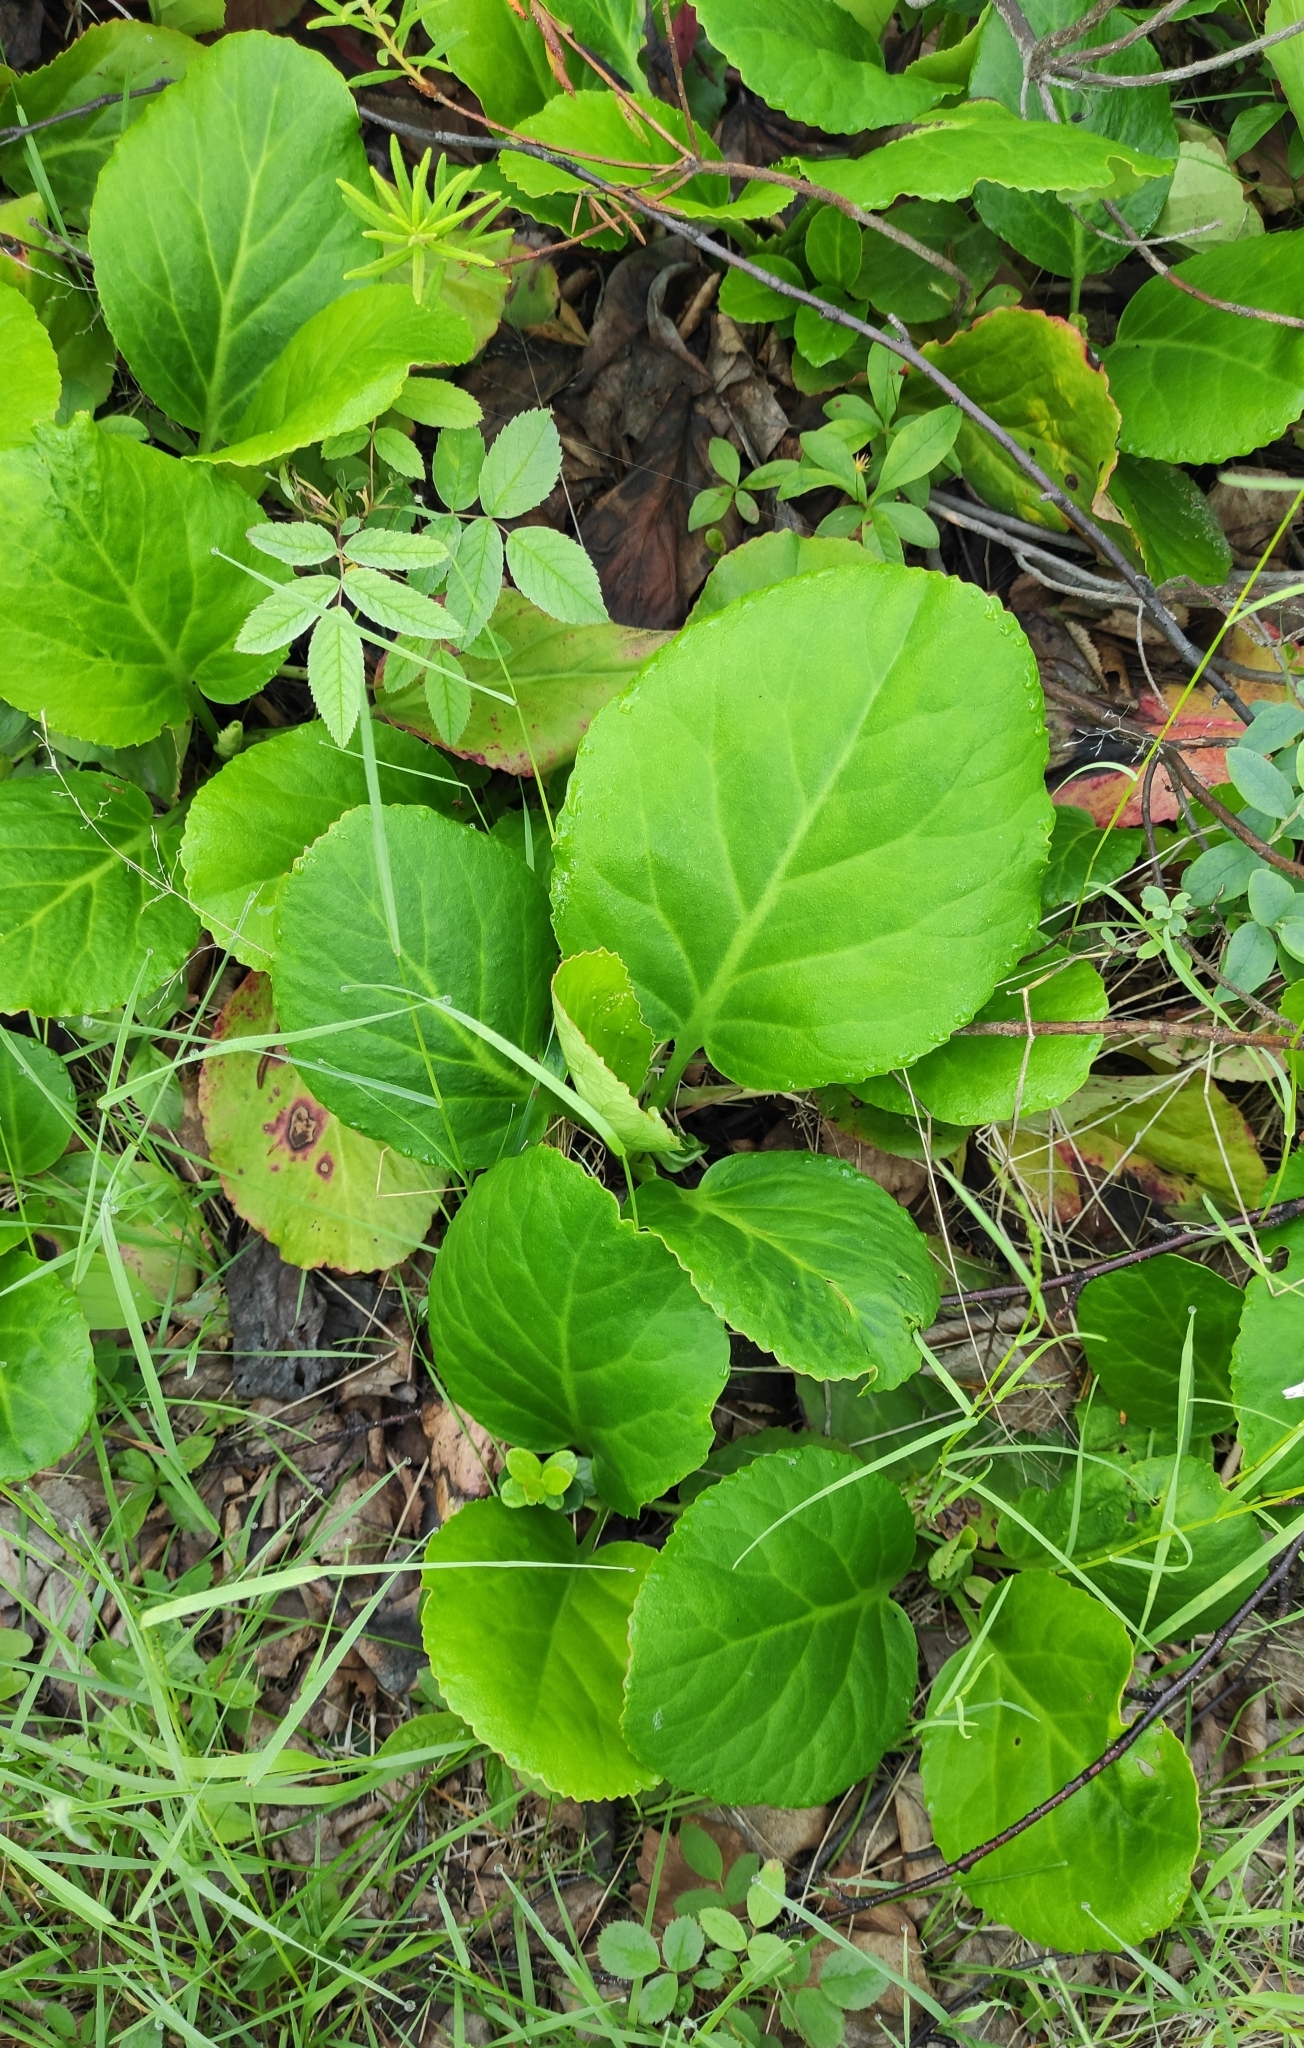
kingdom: Plantae
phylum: Tracheophyta
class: Magnoliopsida
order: Saxifragales
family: Saxifragaceae
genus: Bergenia
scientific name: Bergenia crassifolia
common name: Elephant-ears
